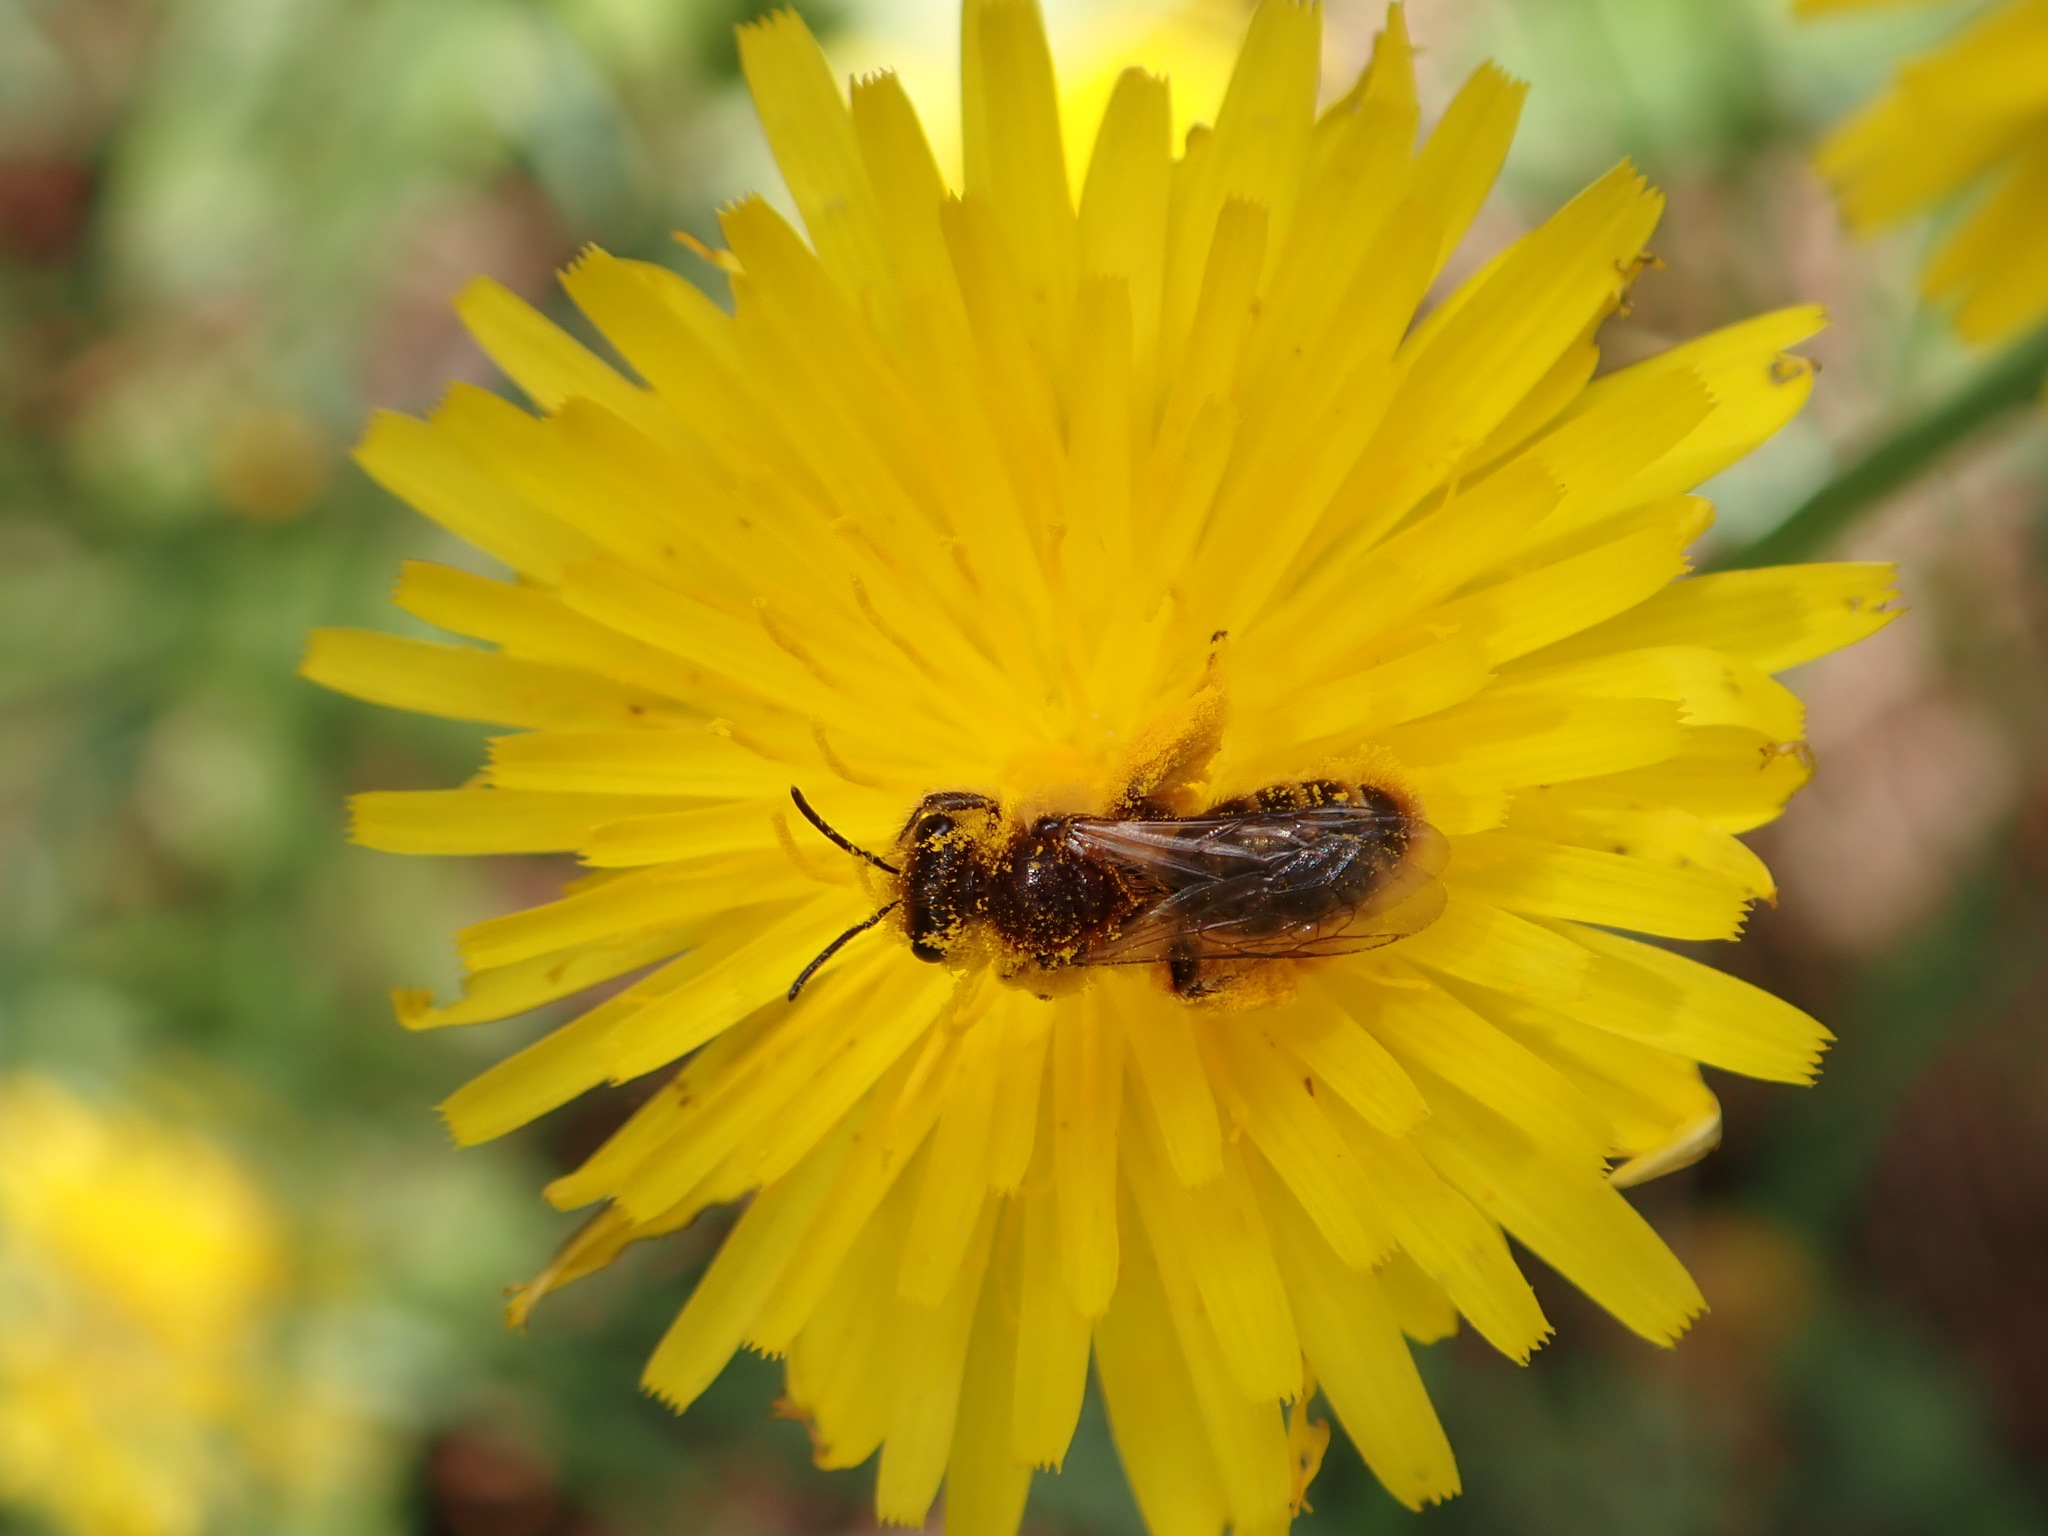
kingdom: Animalia
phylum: Arthropoda
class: Insecta
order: Hymenoptera
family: Colletidae
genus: Leioproctus
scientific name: Leioproctus fulvescens
